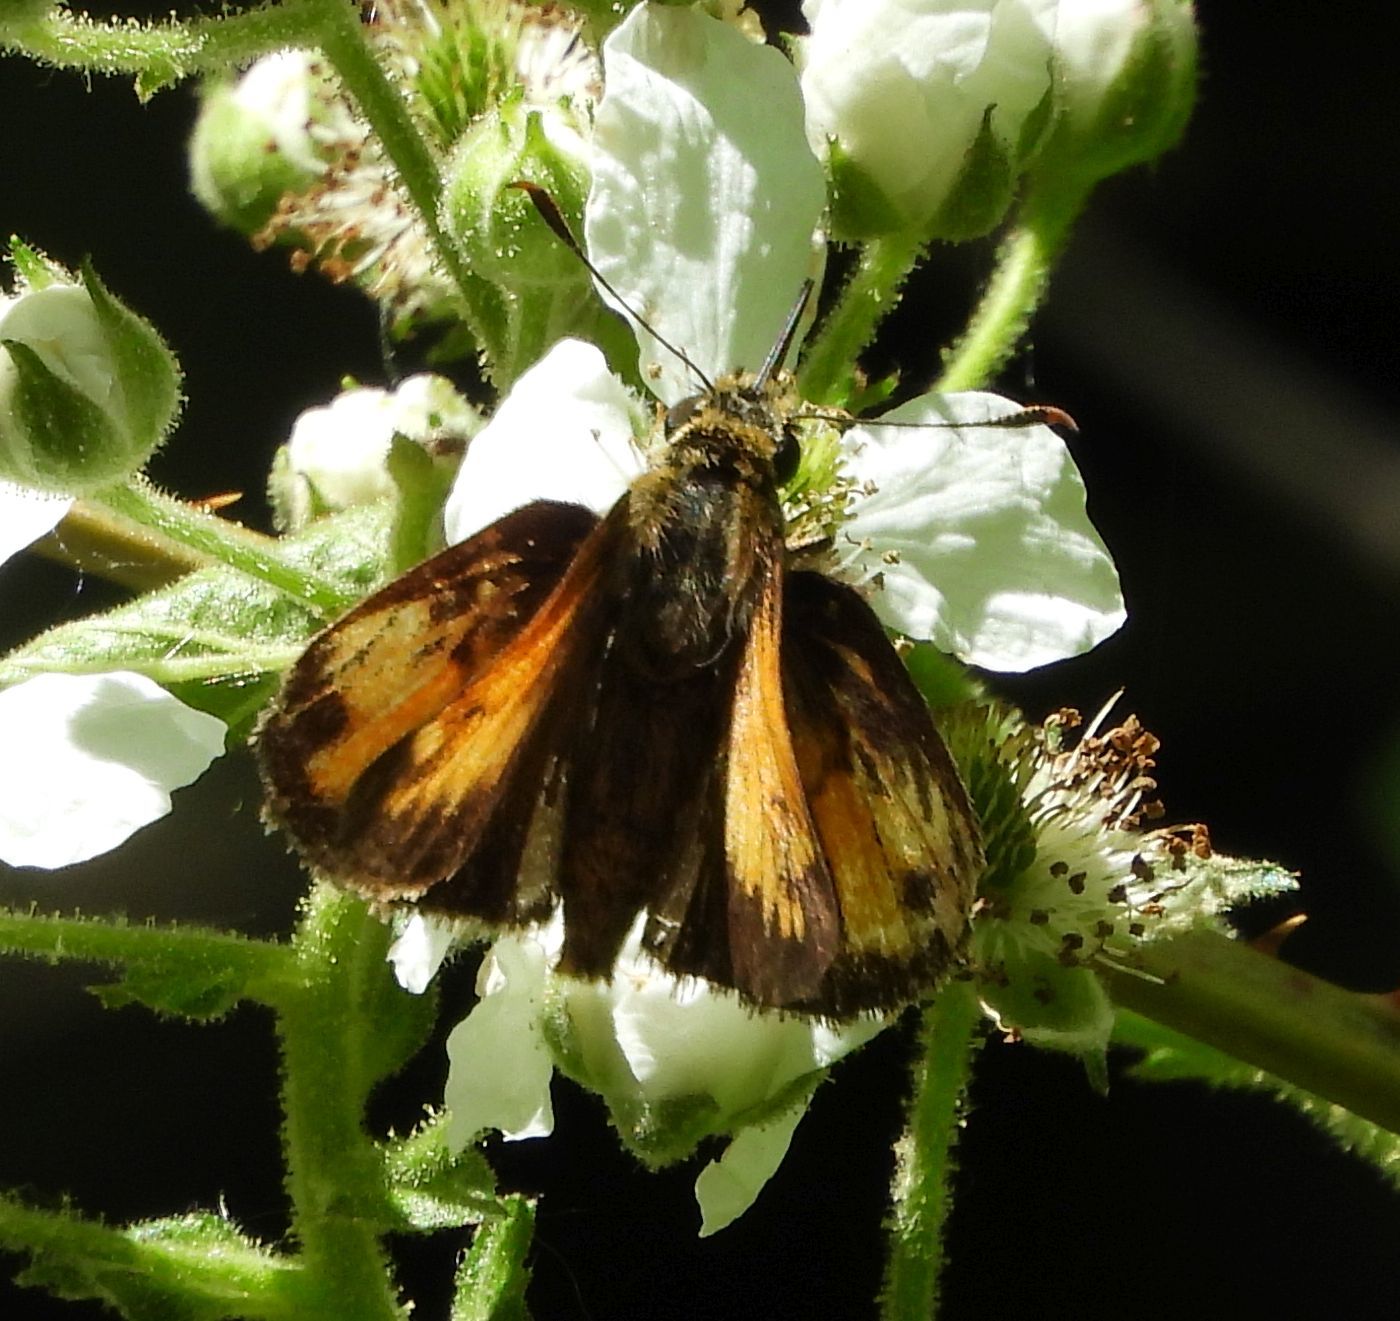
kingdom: Animalia
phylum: Arthropoda
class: Insecta
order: Lepidoptera
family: Hesperiidae
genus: Lon
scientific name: Lon hobomok
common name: Hobomok skipper
